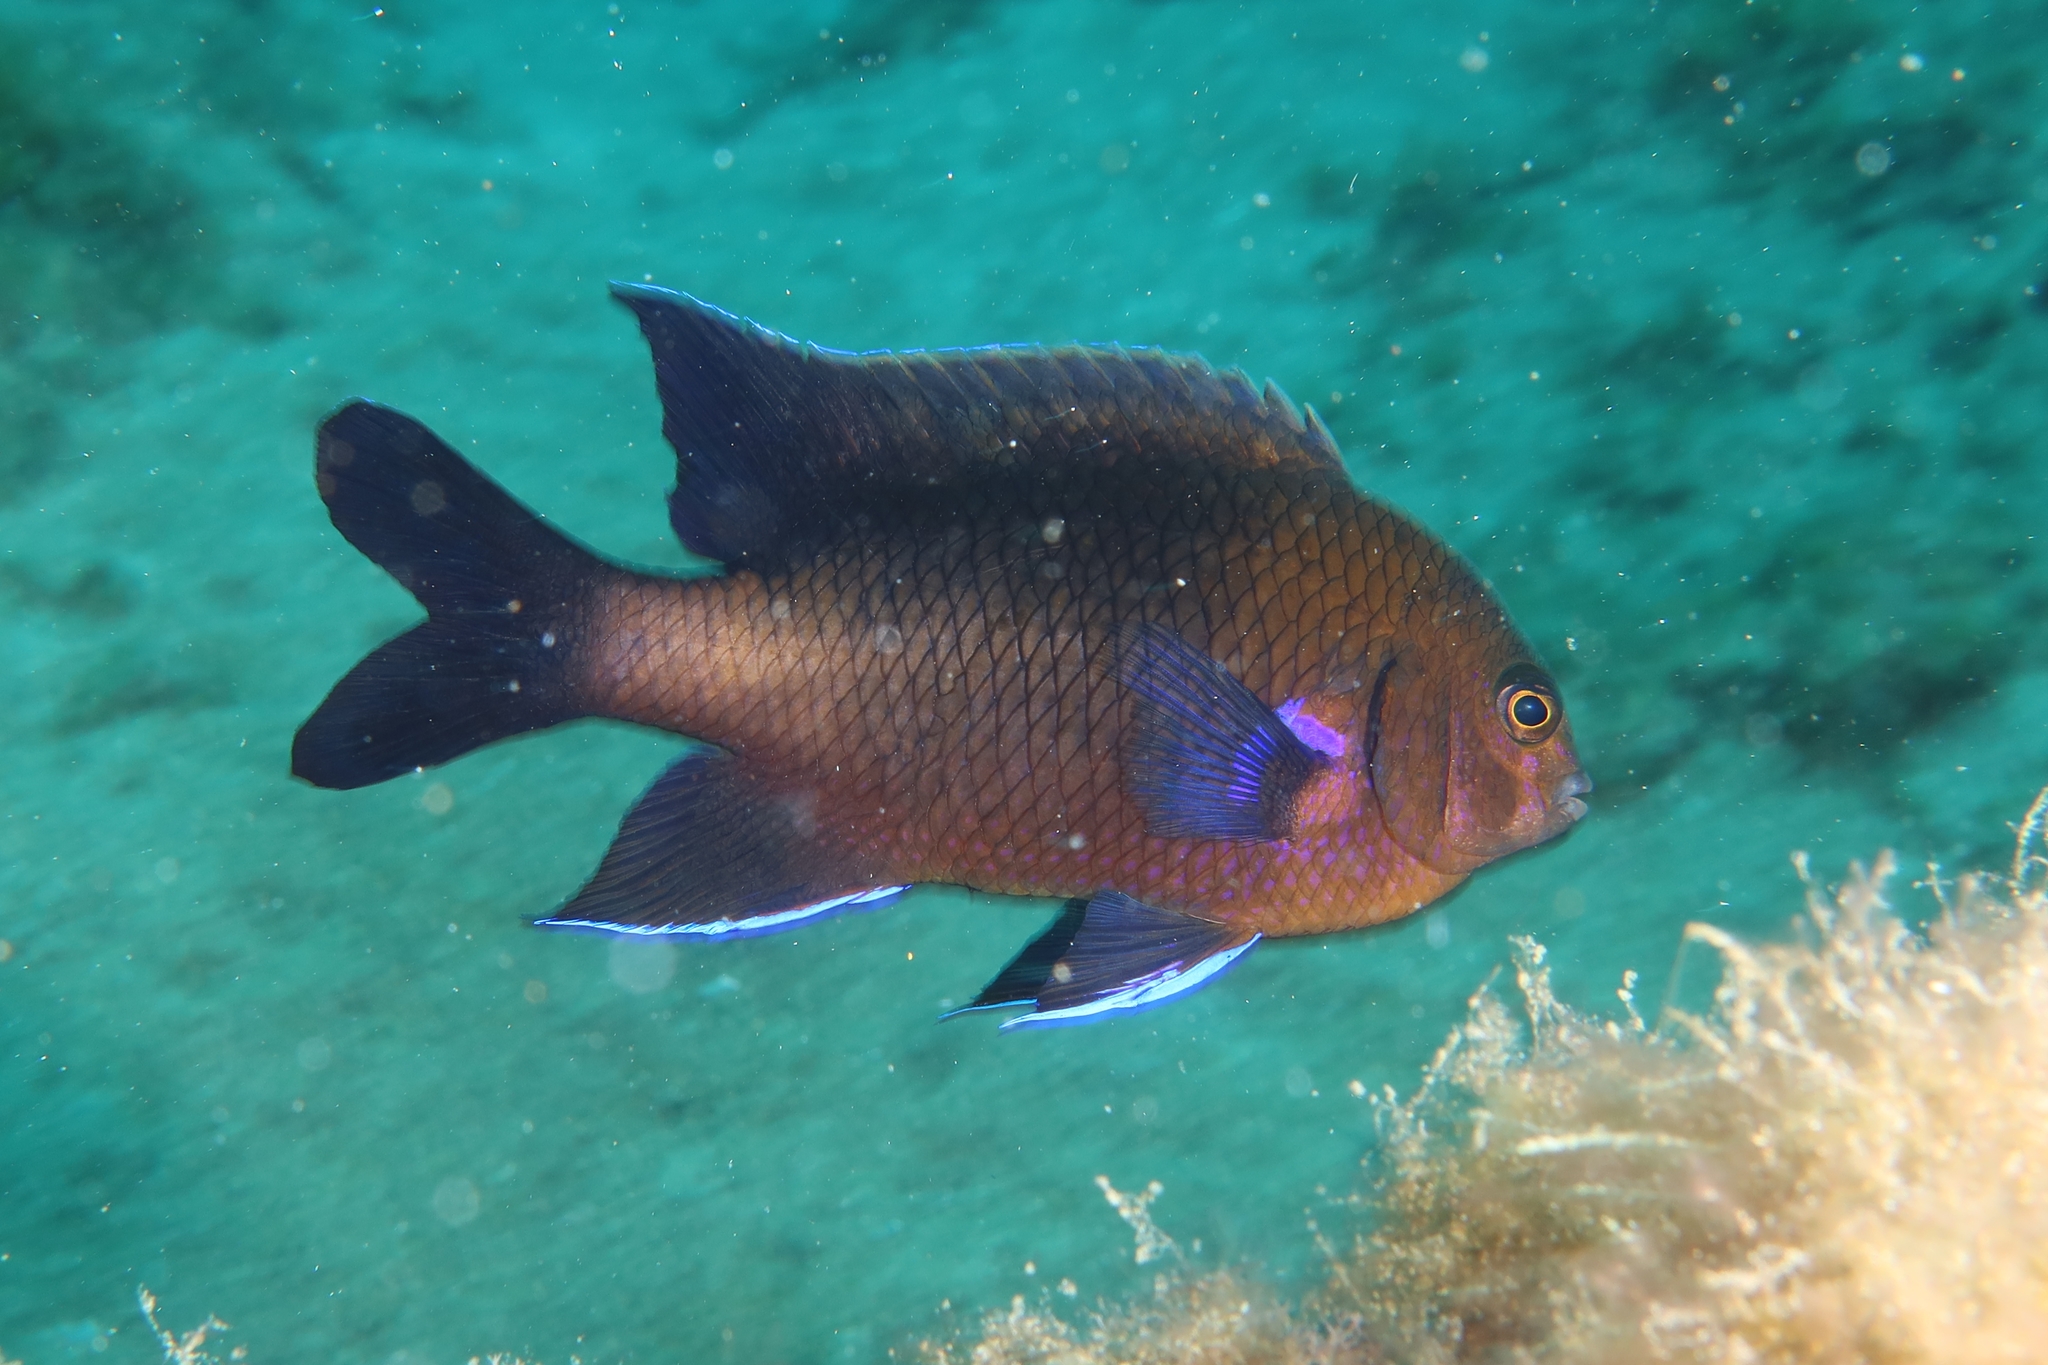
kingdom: Animalia
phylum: Chordata
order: Perciformes
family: Pomacentridae
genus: Similiparma
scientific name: Similiparma lurida
